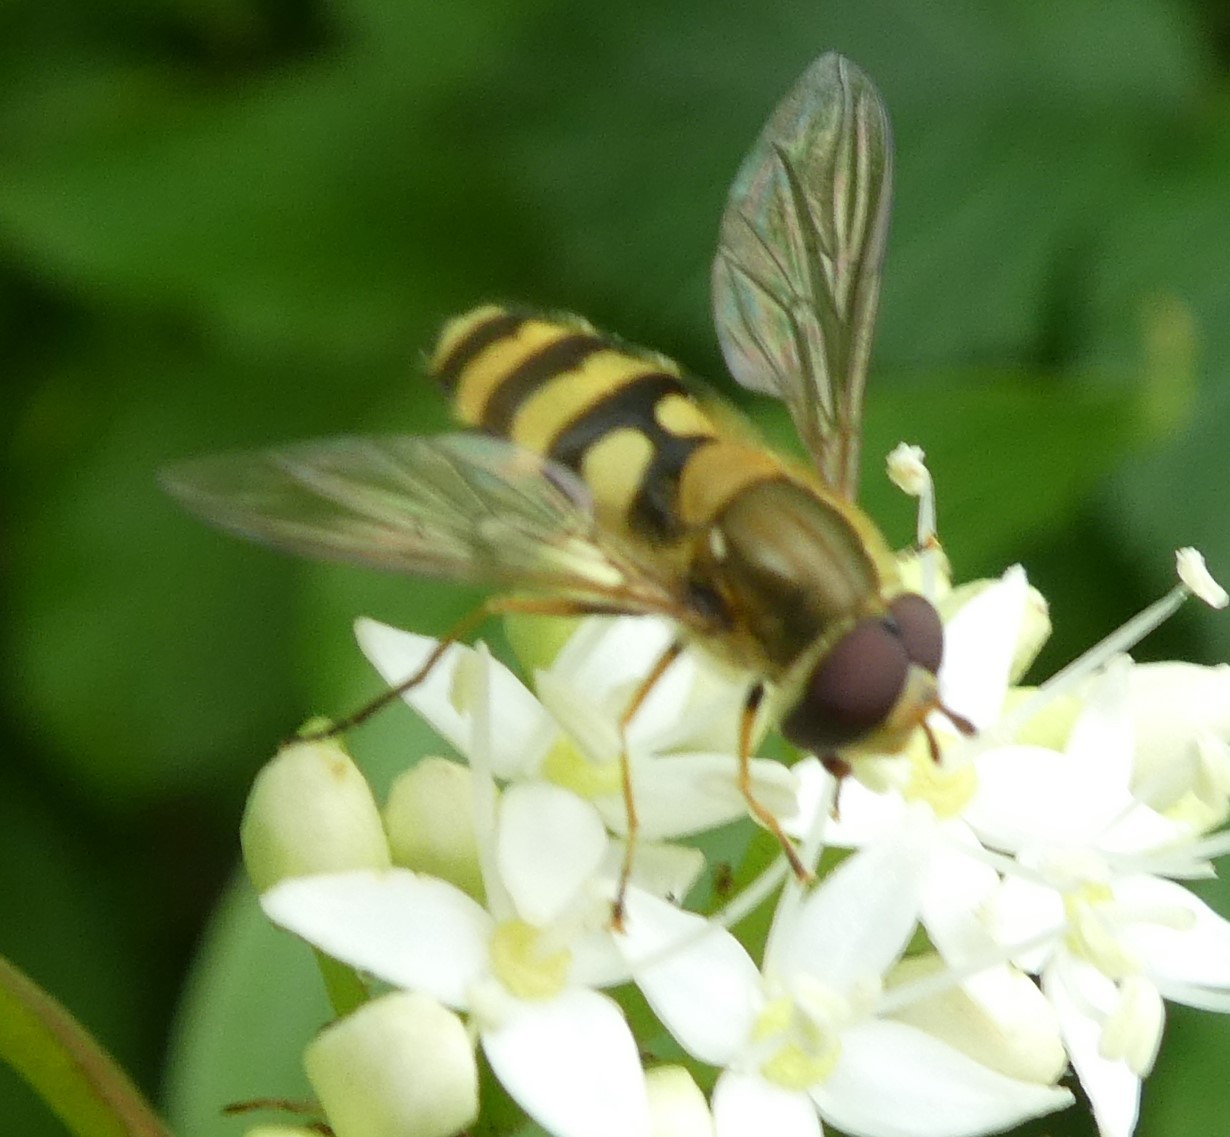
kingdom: Animalia
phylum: Arthropoda
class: Insecta
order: Diptera
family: Syrphidae
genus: Syrphus
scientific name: Syrphus
